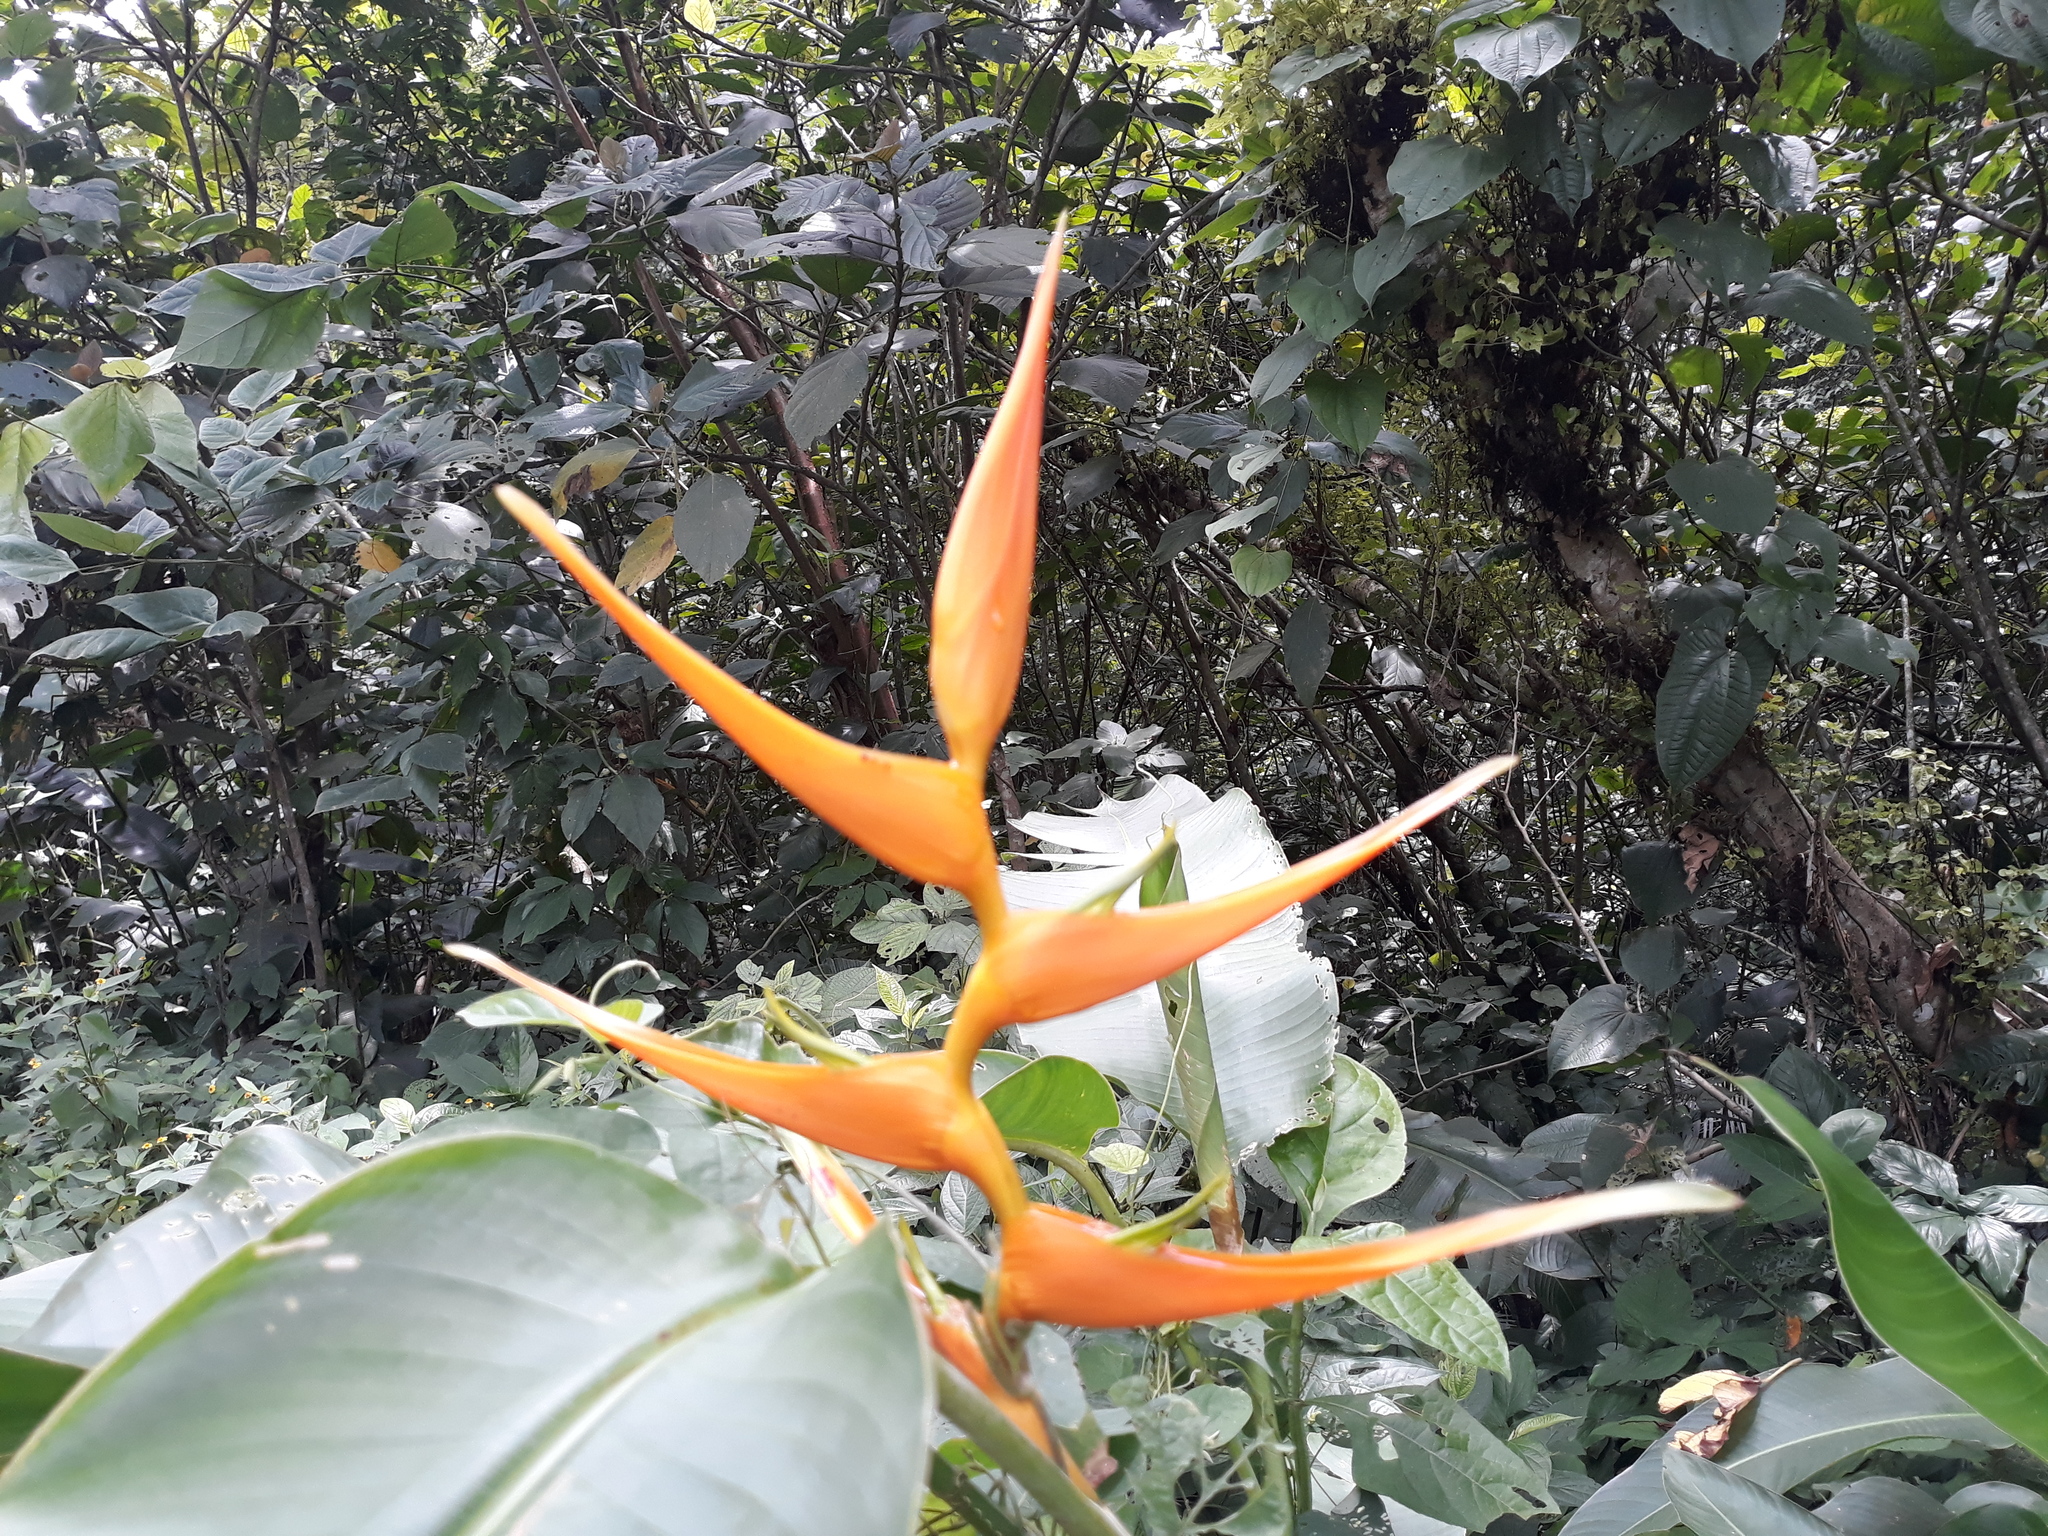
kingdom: Plantae
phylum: Tracheophyta
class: Liliopsida
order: Zingiberales
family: Heliconiaceae
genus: Heliconia
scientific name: Heliconia latispatha
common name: Expanded lobsterclaw
